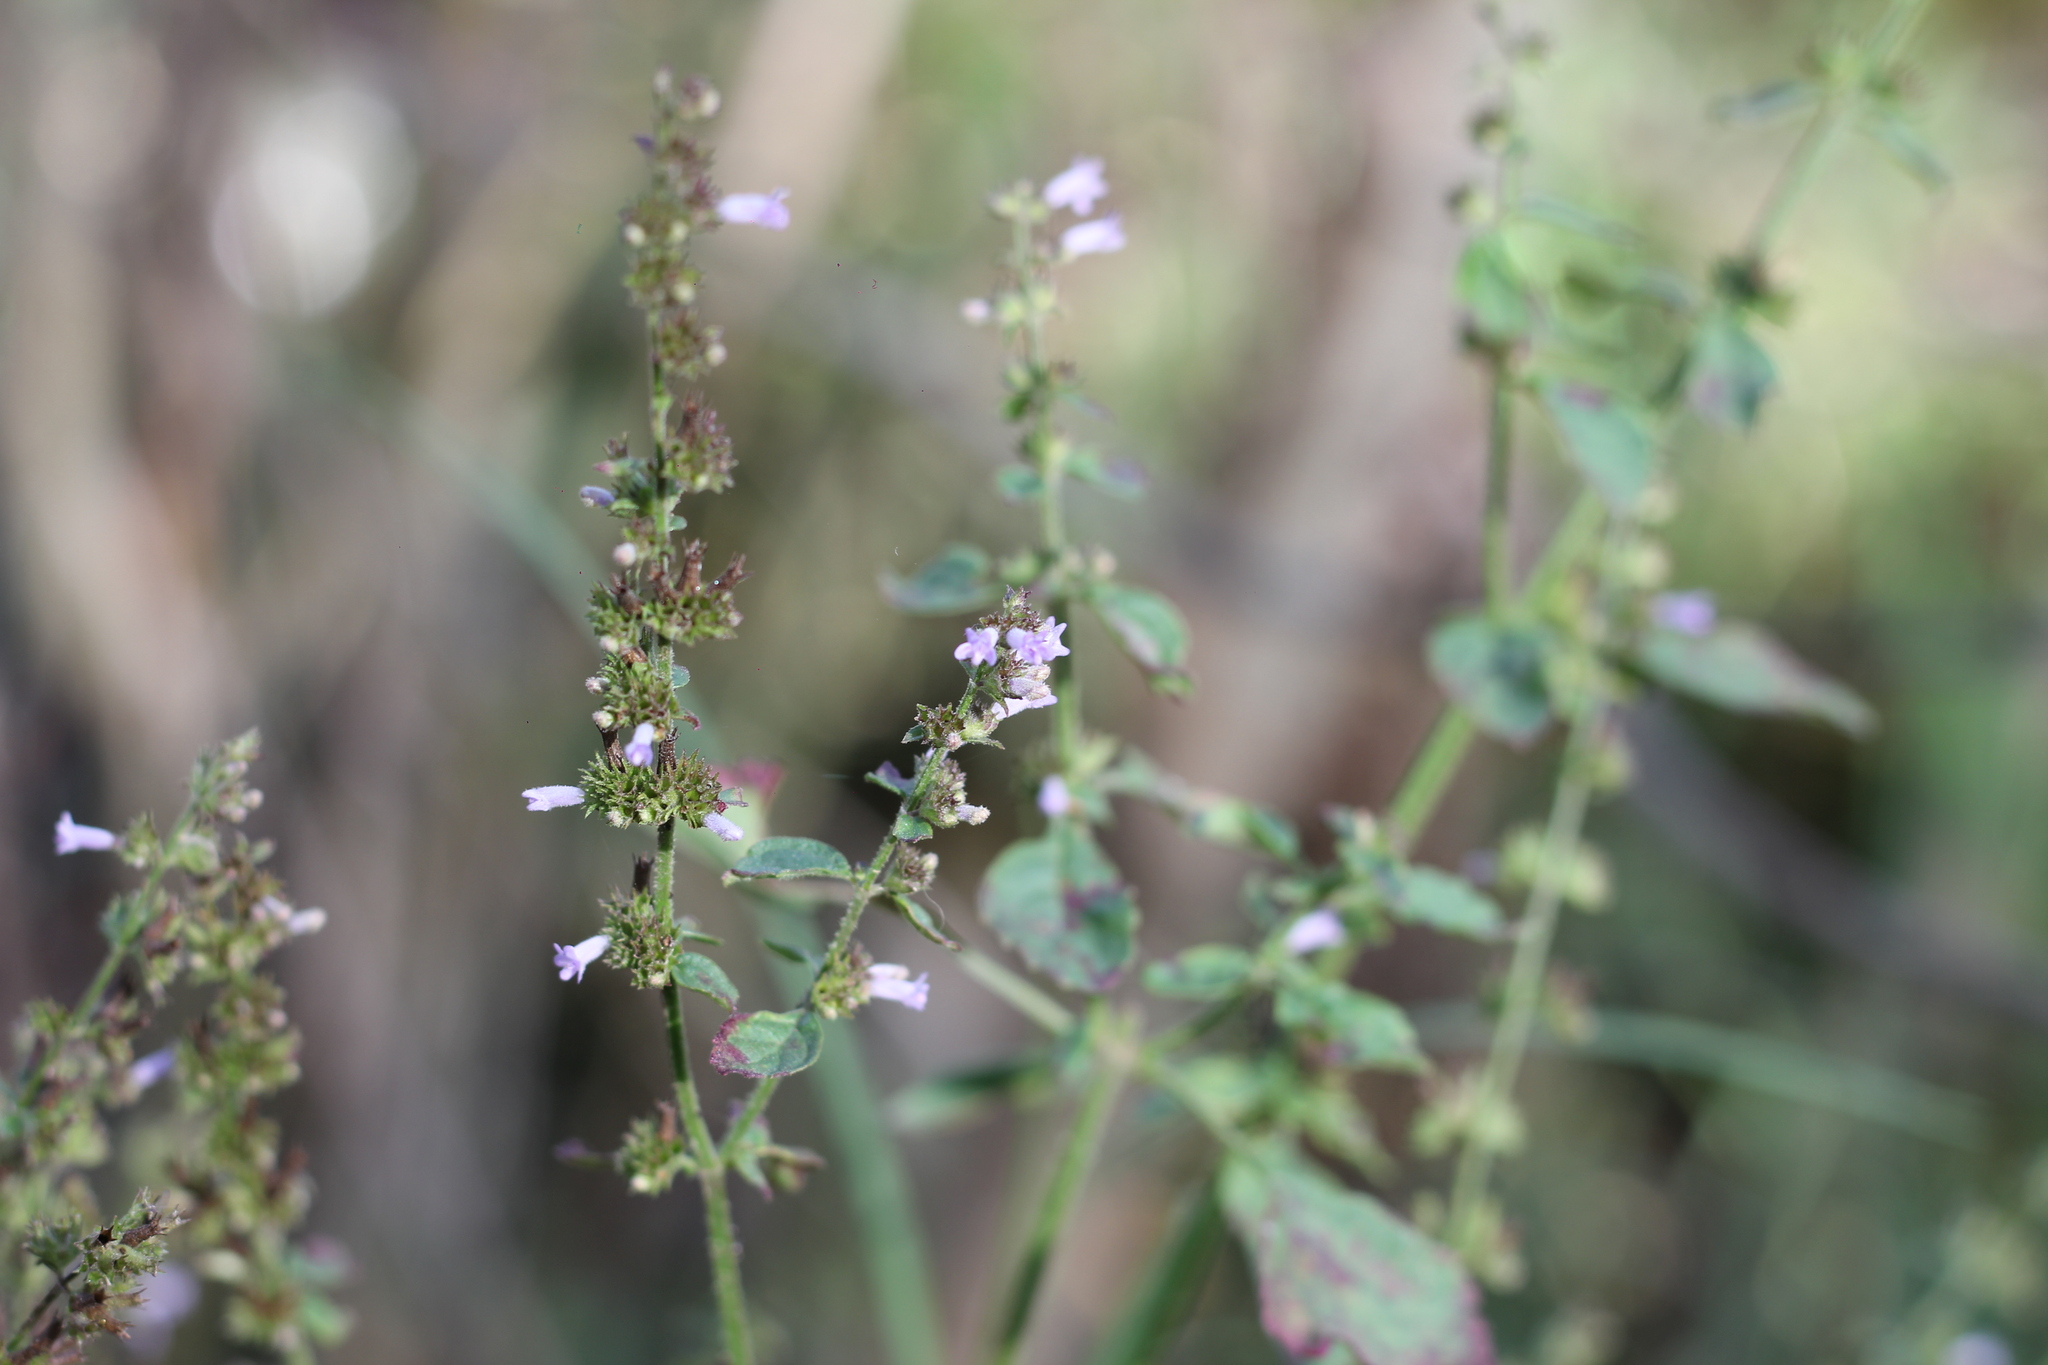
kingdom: Plantae
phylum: Tracheophyta
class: Magnoliopsida
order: Lamiales
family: Lamiaceae
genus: Cantinoa
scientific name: Cantinoa mutabilis
